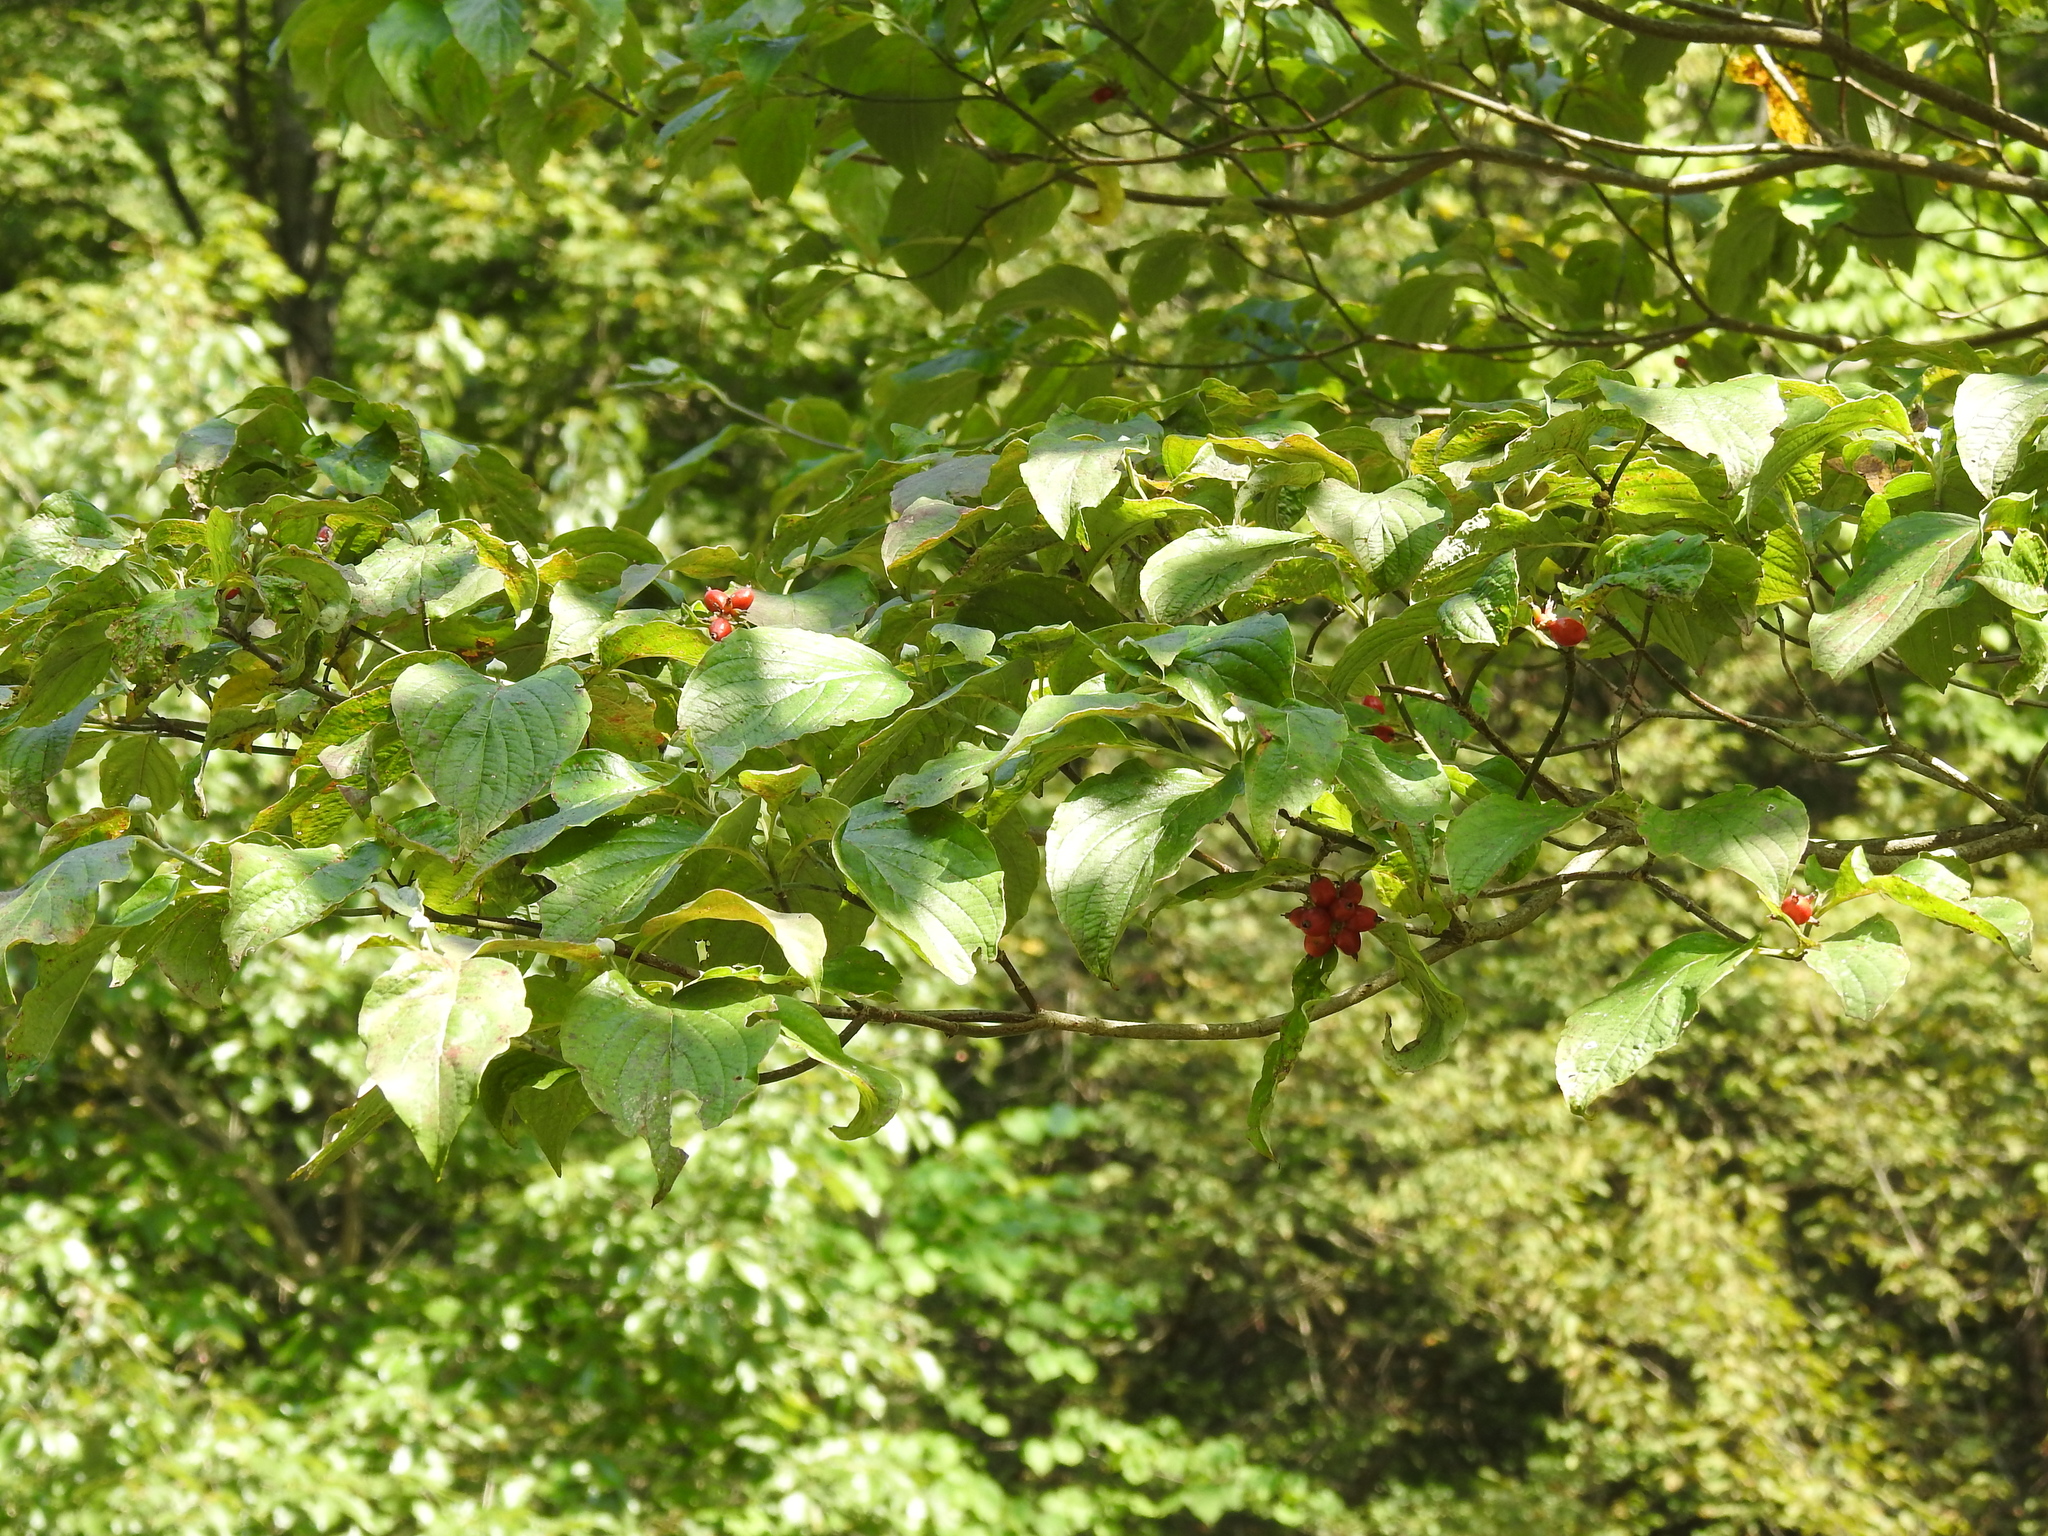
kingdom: Plantae
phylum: Tracheophyta
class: Magnoliopsida
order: Cornales
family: Cornaceae
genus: Cornus
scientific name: Cornus florida
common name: Flowering dogwood
